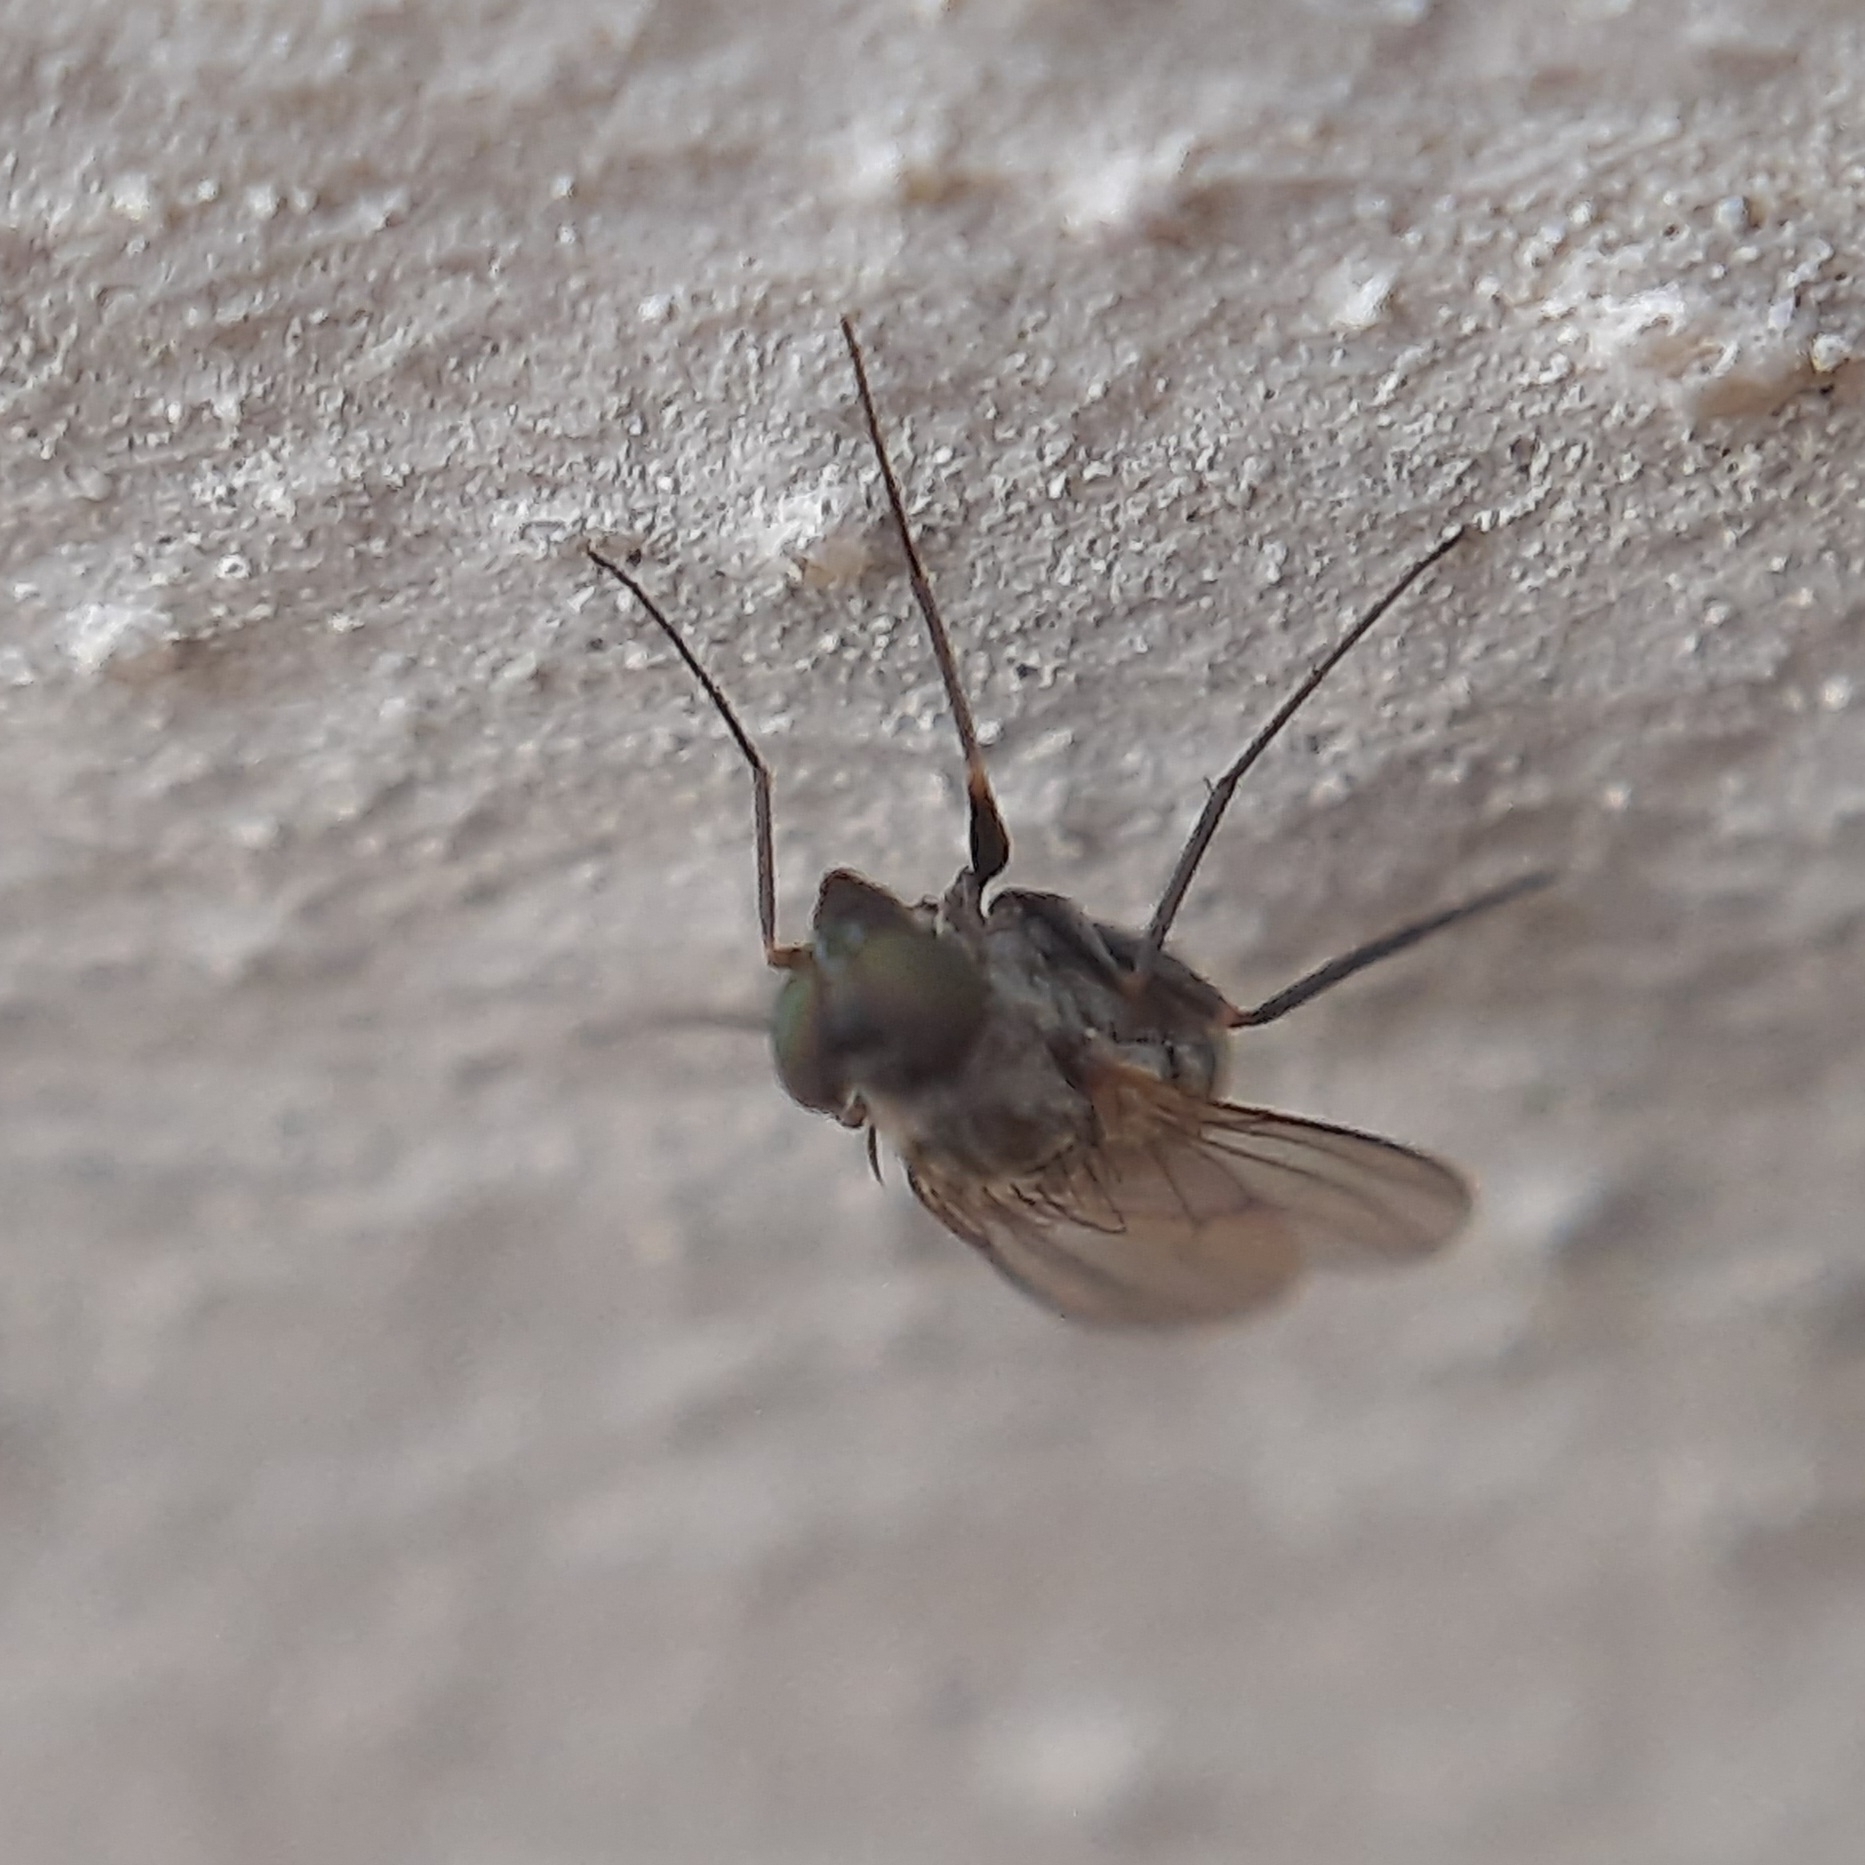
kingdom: Animalia
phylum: Arthropoda
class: Insecta
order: Diptera
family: Dolichopodidae
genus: Medetera
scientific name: Medetera
